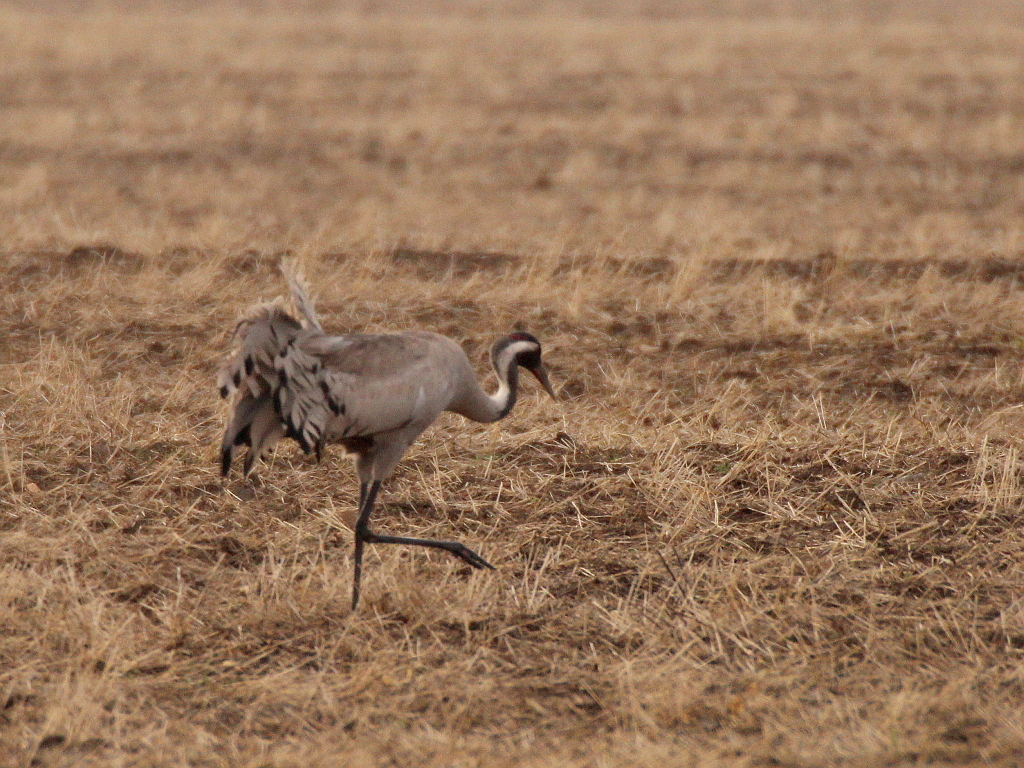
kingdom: Animalia
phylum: Chordata
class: Aves
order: Gruiformes
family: Gruidae
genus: Grus
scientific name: Grus grus
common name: Common crane
